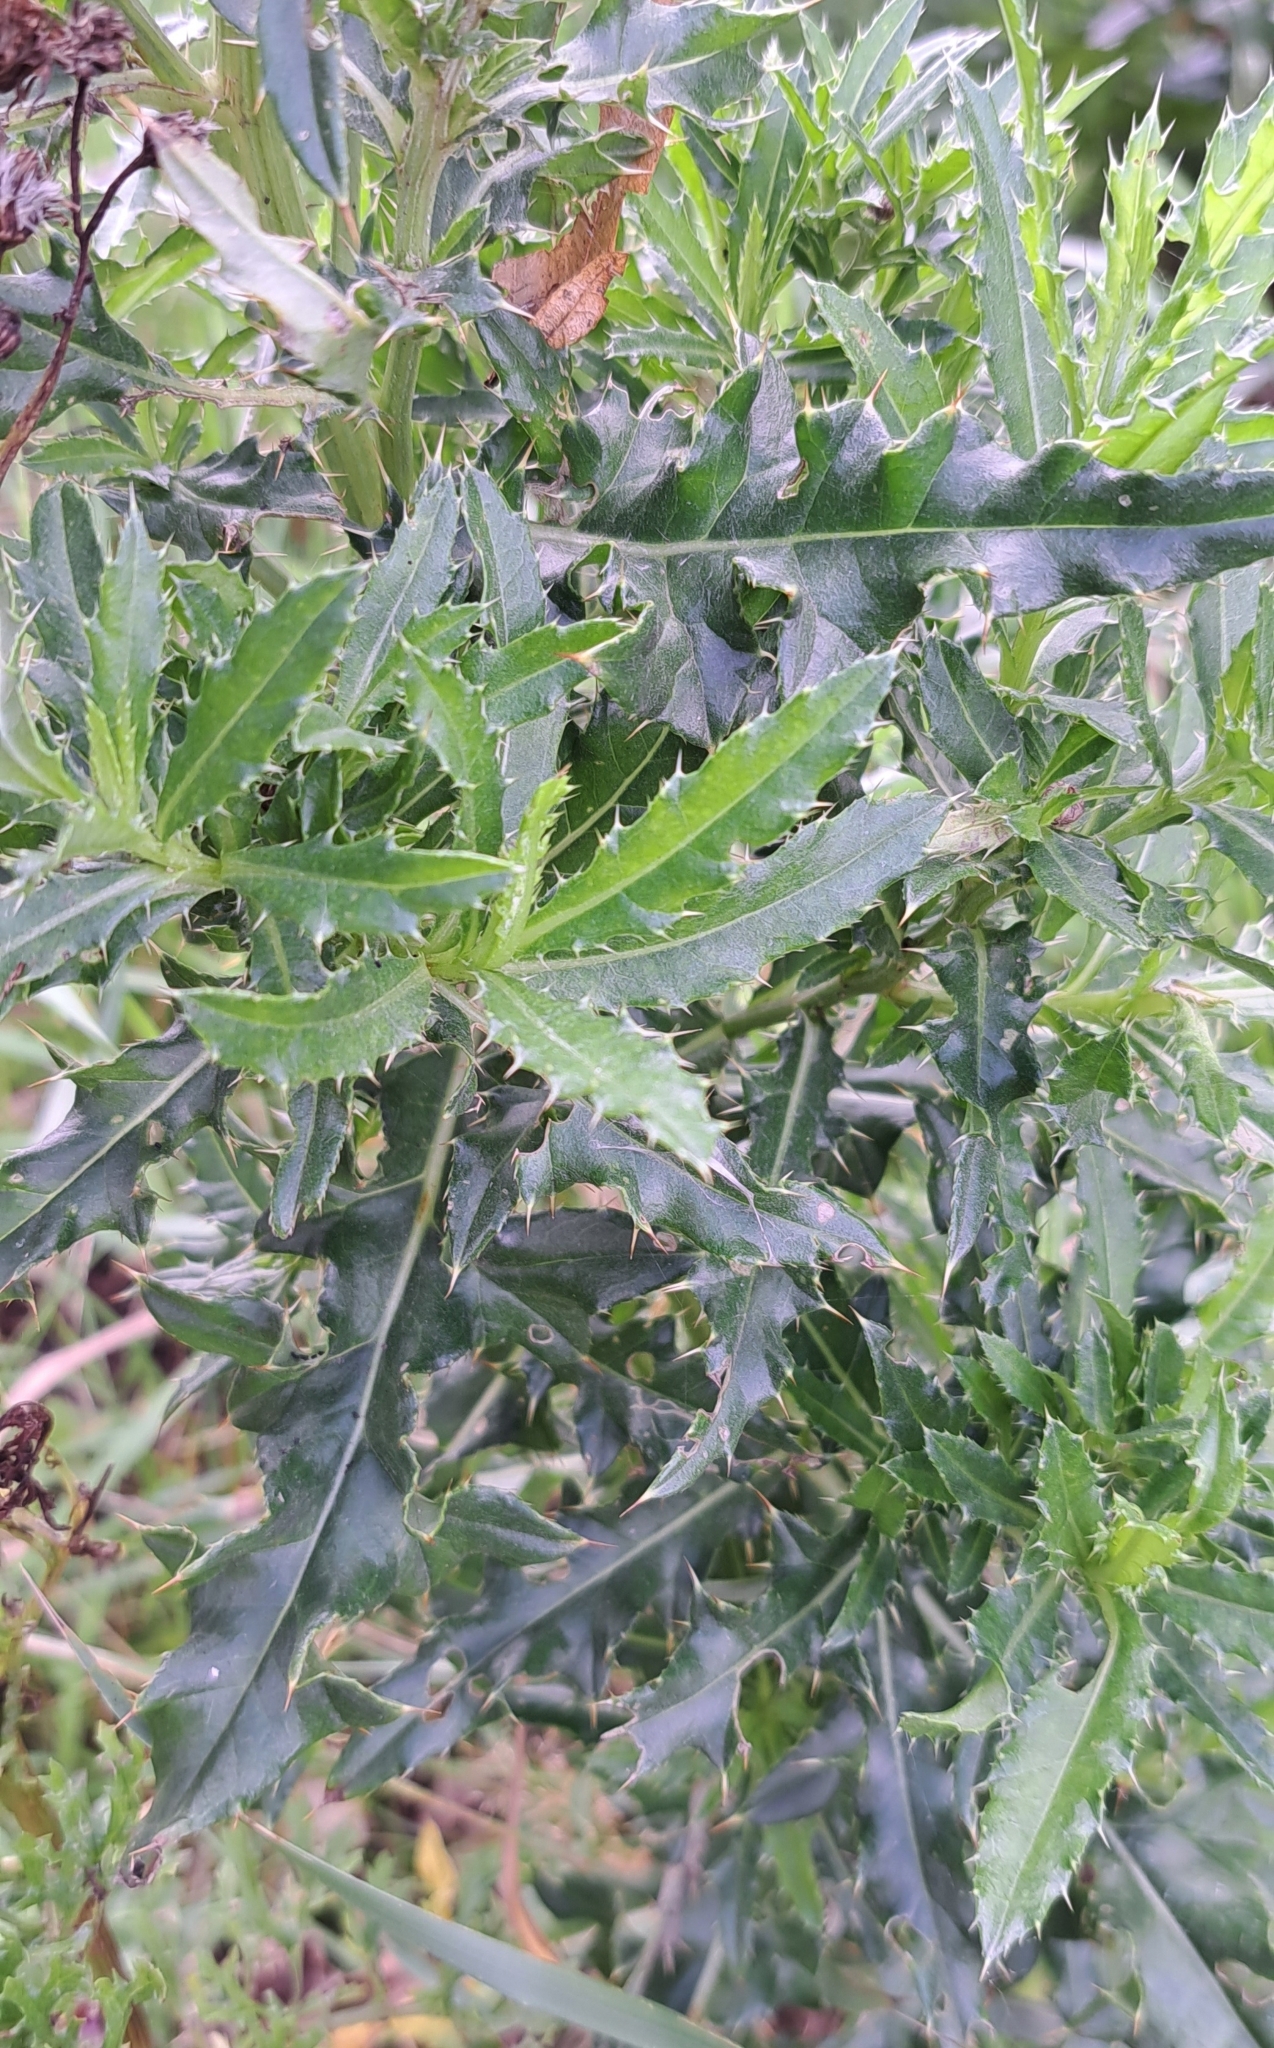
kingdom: Plantae
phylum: Tracheophyta
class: Magnoliopsida
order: Asterales
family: Asteraceae
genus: Cirsium
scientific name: Cirsium arvense
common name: Creeping thistle
